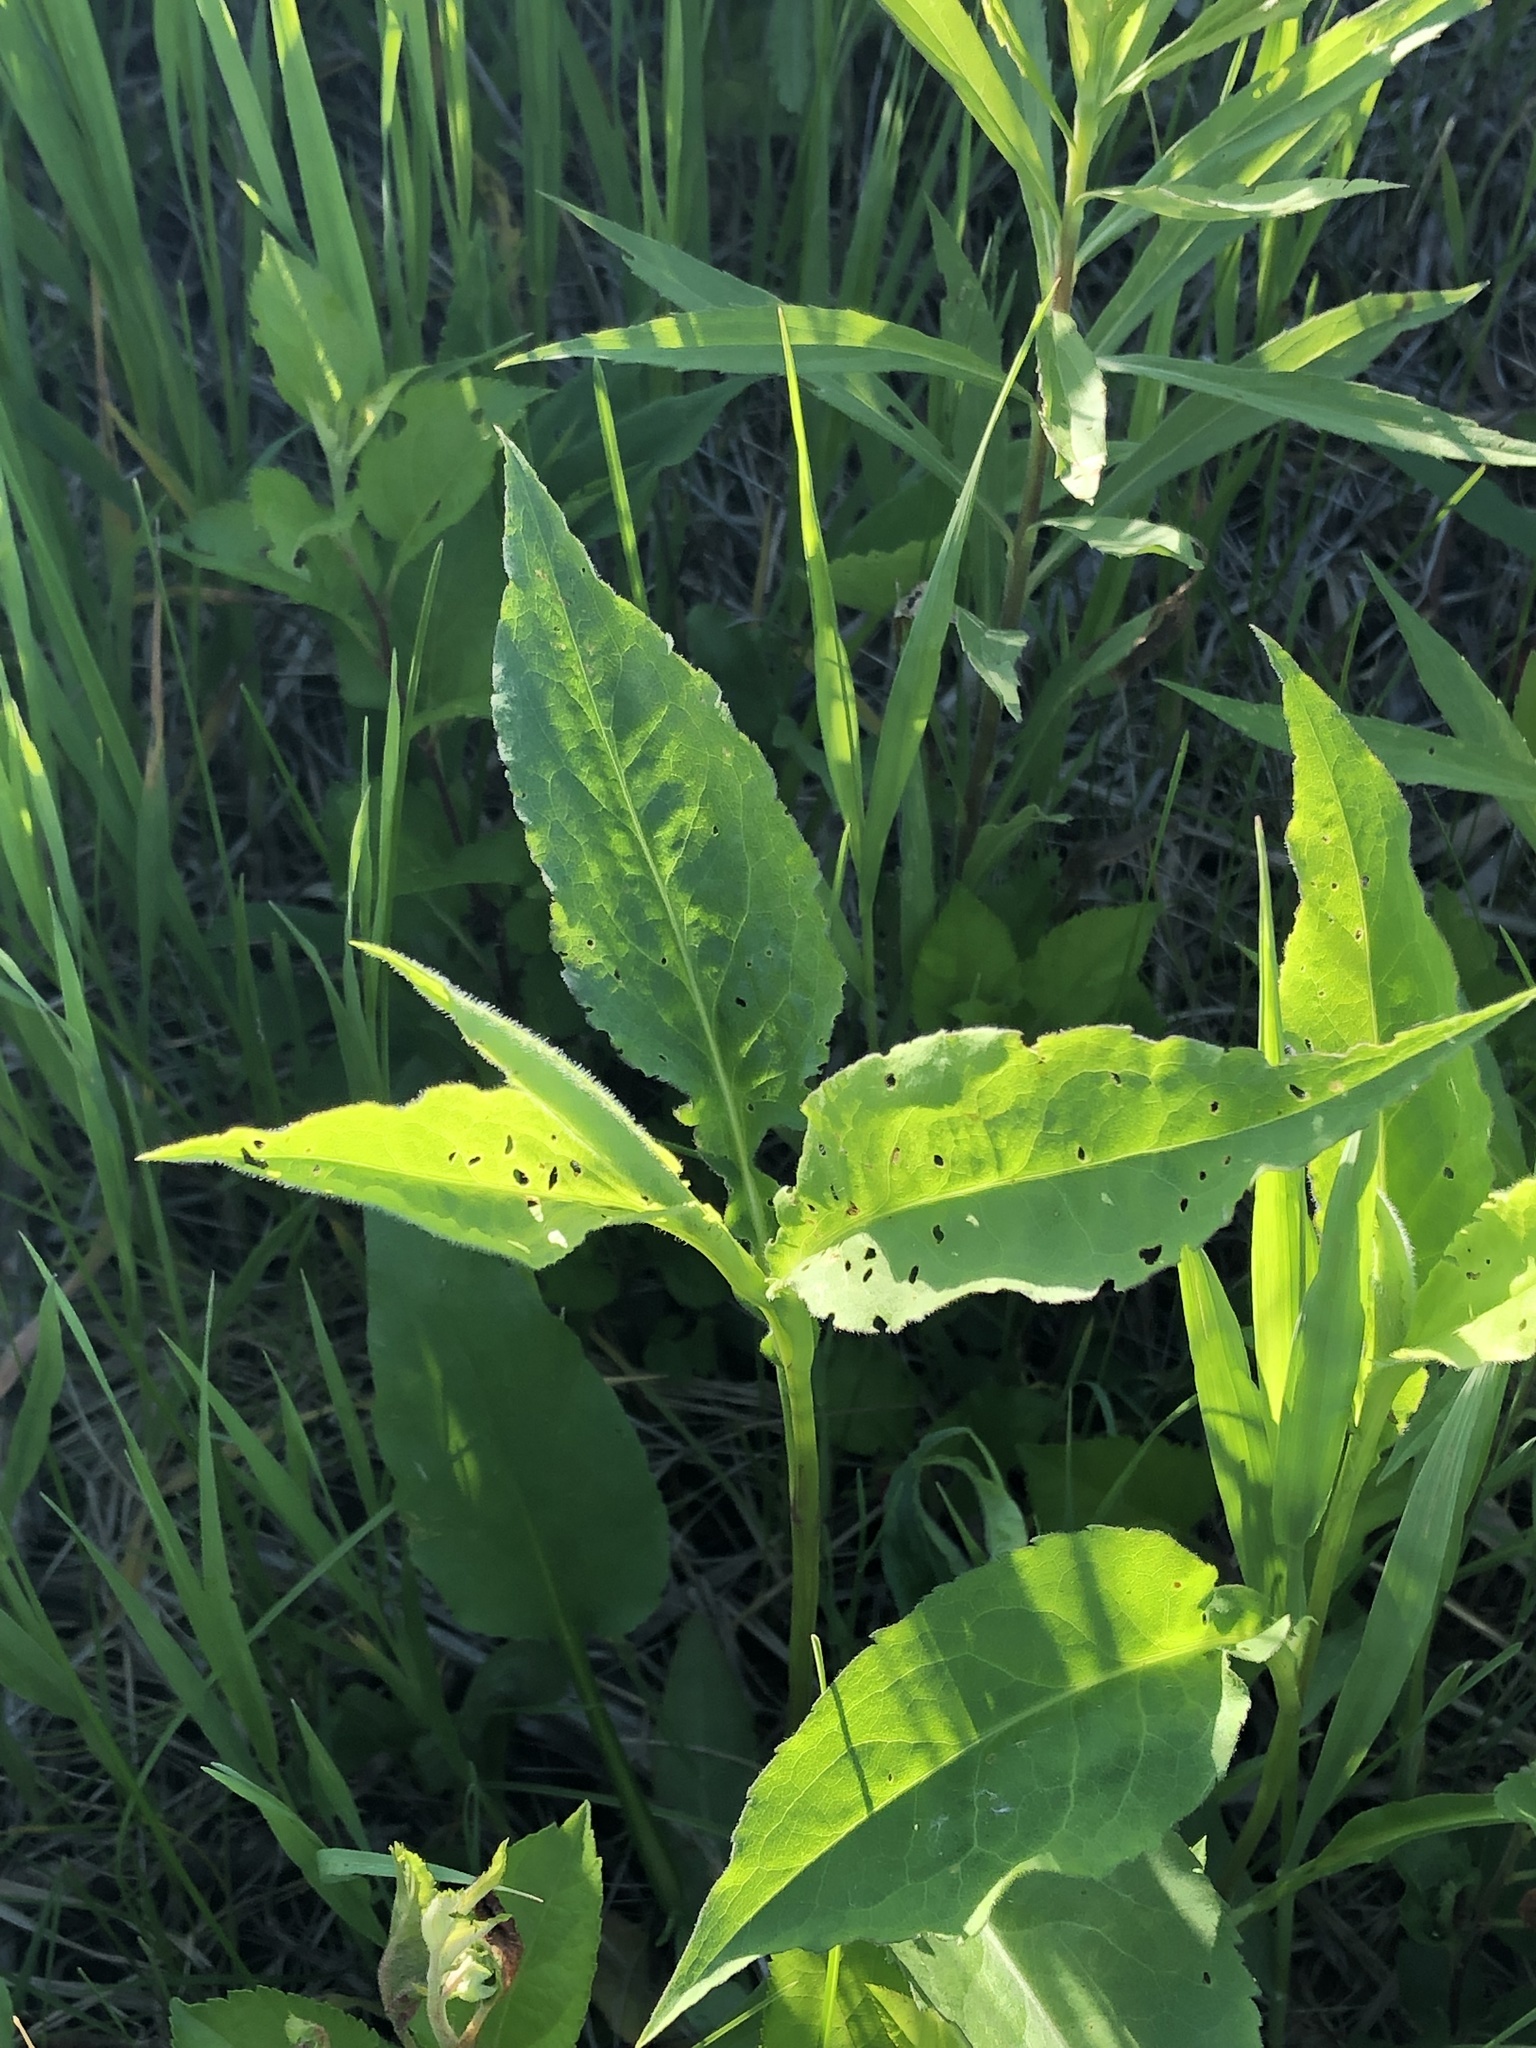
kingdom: Plantae
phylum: Tracheophyta
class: Magnoliopsida
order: Asterales
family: Asteraceae
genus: Symphyotrichum
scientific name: Symphyotrichum urophyllum
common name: Arrow-leaved aster
